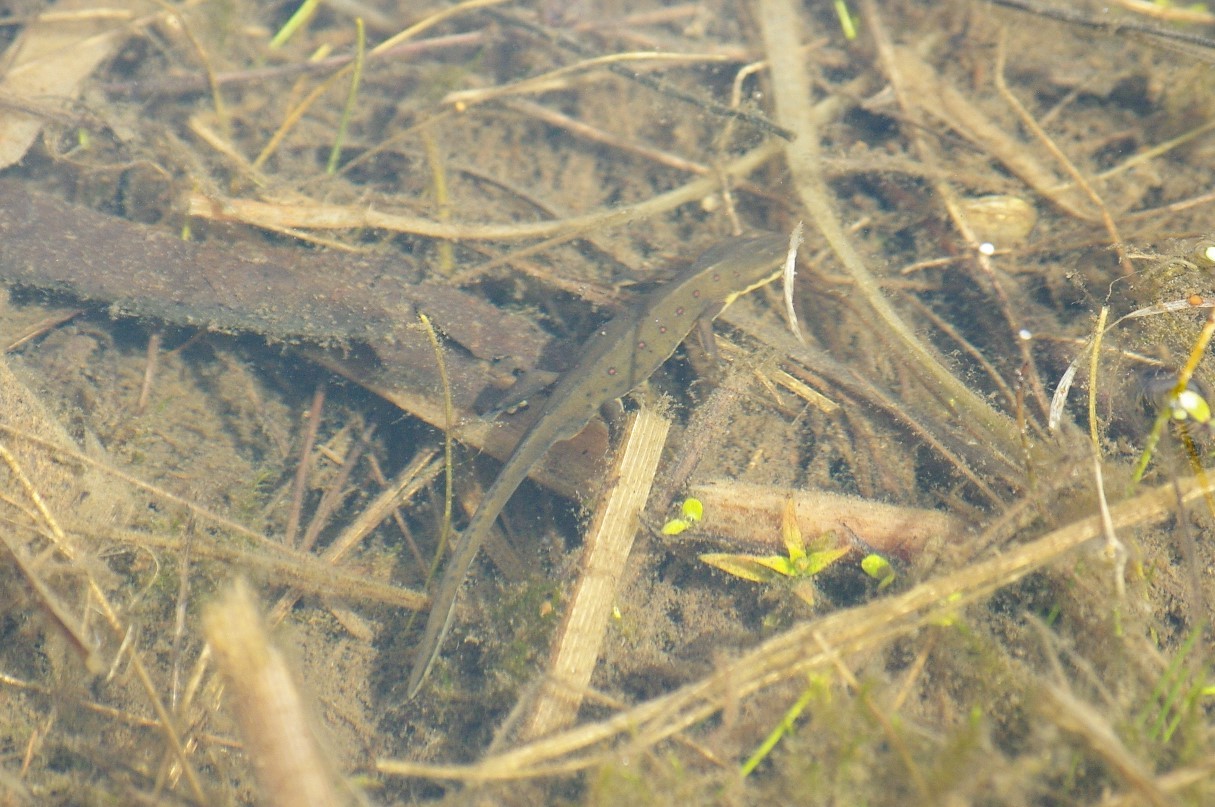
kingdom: Animalia
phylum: Chordata
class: Amphibia
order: Caudata
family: Salamandridae
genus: Notophthalmus
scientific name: Notophthalmus viridescens
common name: Eastern newt
